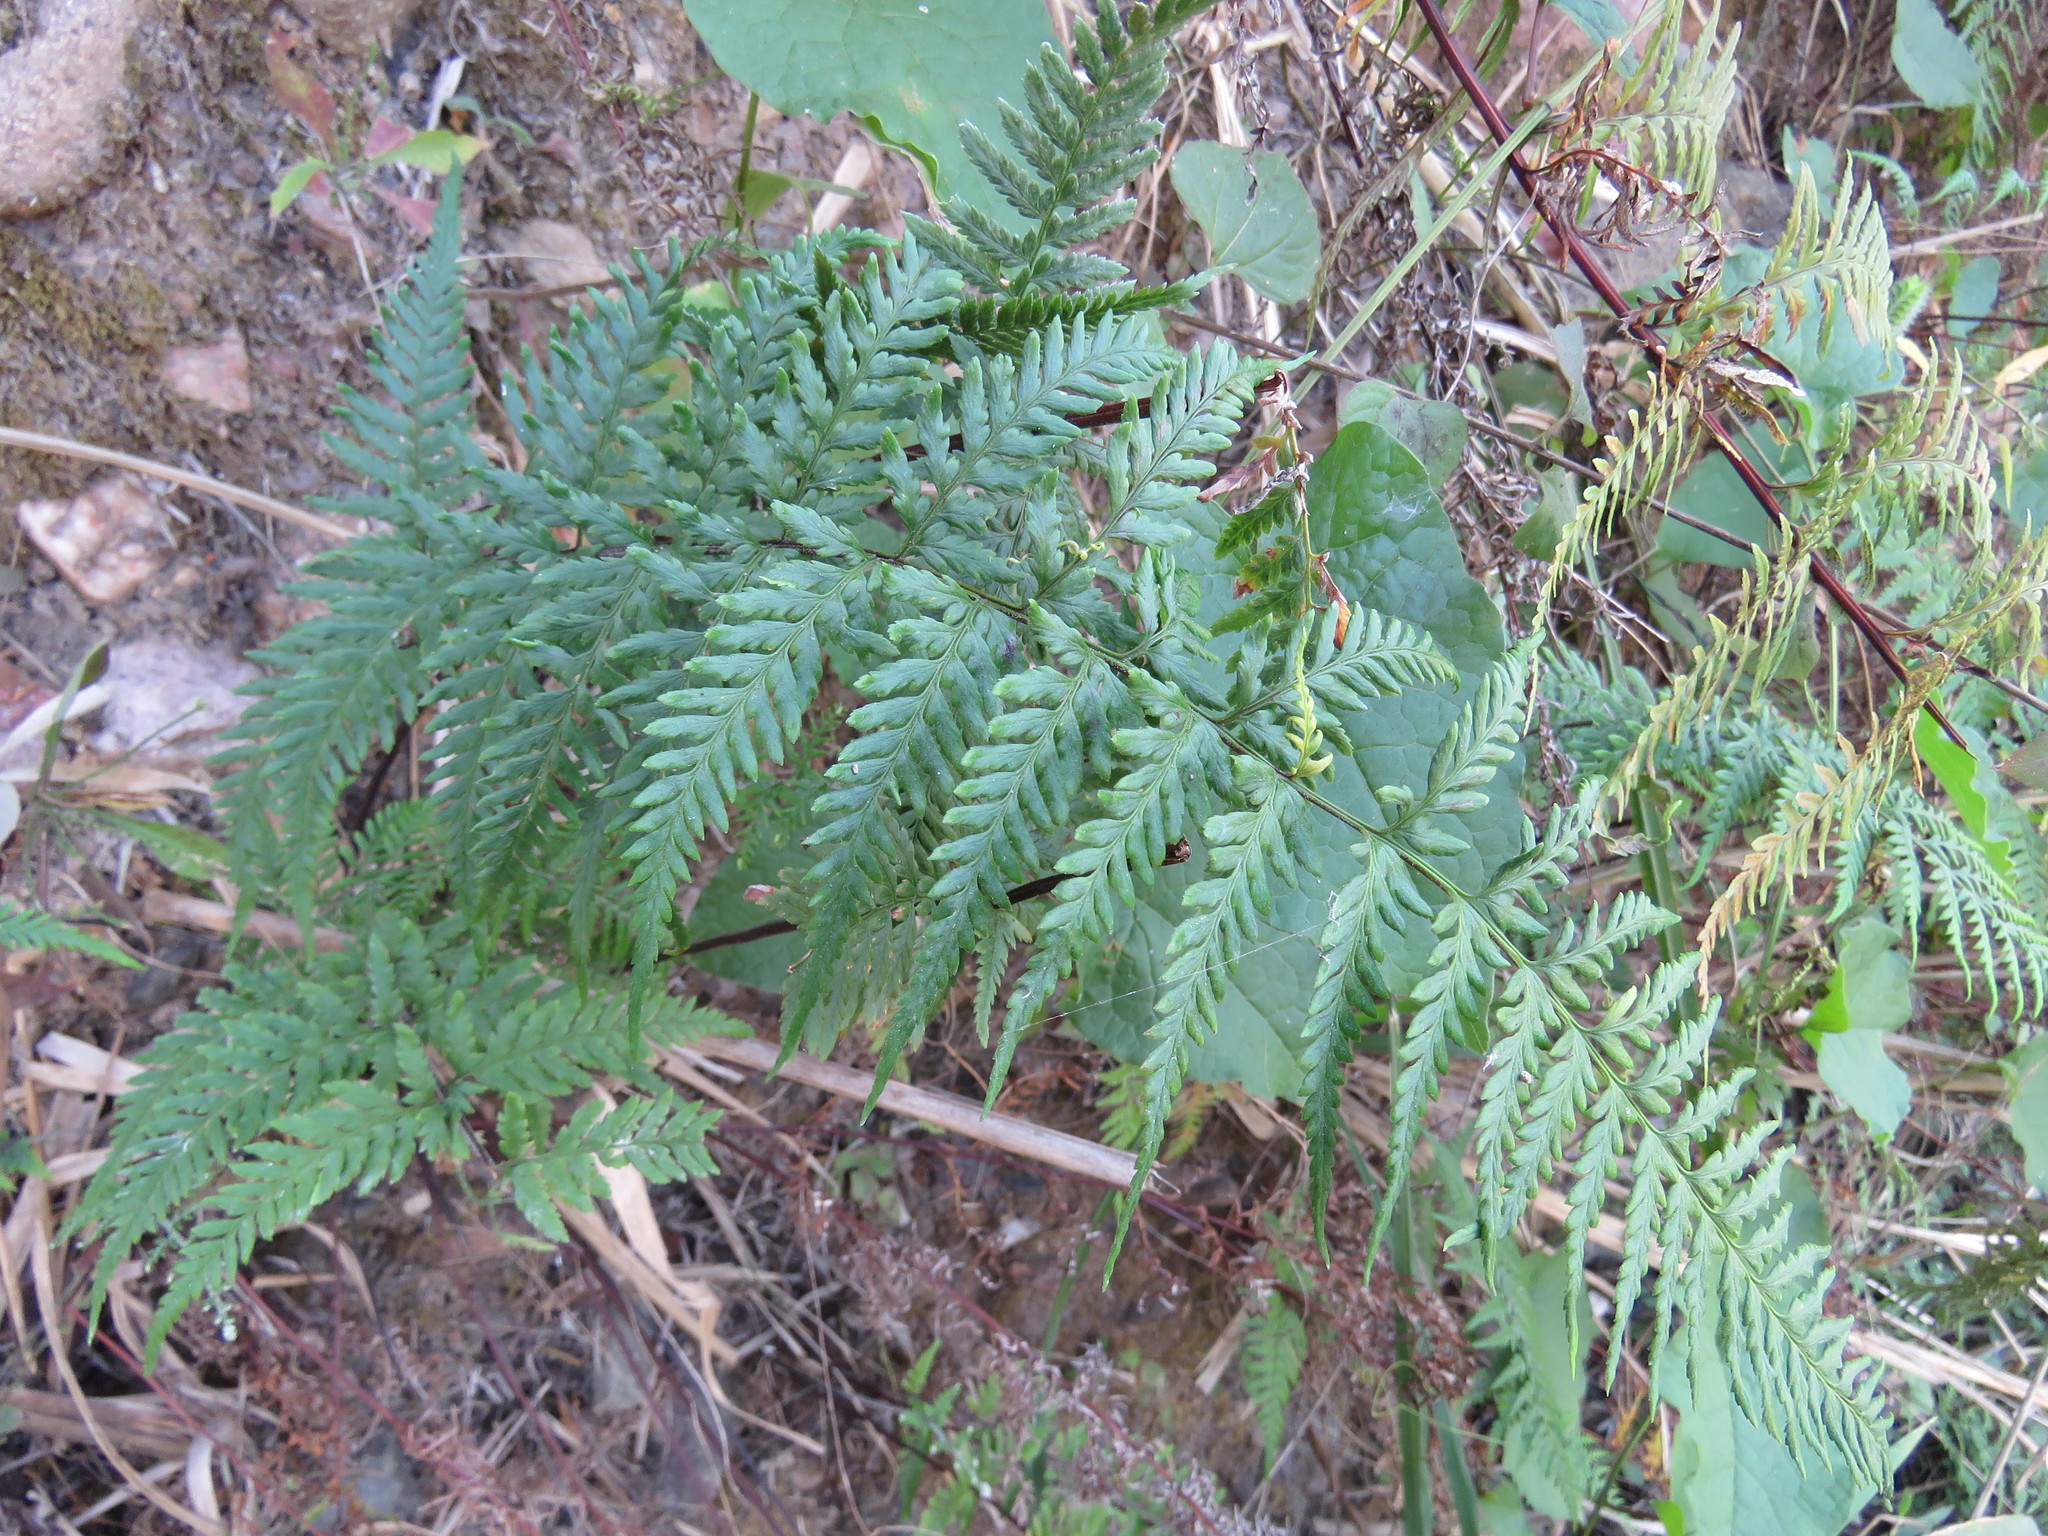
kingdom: Plantae
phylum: Tracheophyta
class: Polypodiopsida
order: Polypodiales
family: Pteridaceae
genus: Pityrogramma
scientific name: Pityrogramma calomelanos
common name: Dixie silverback fern
